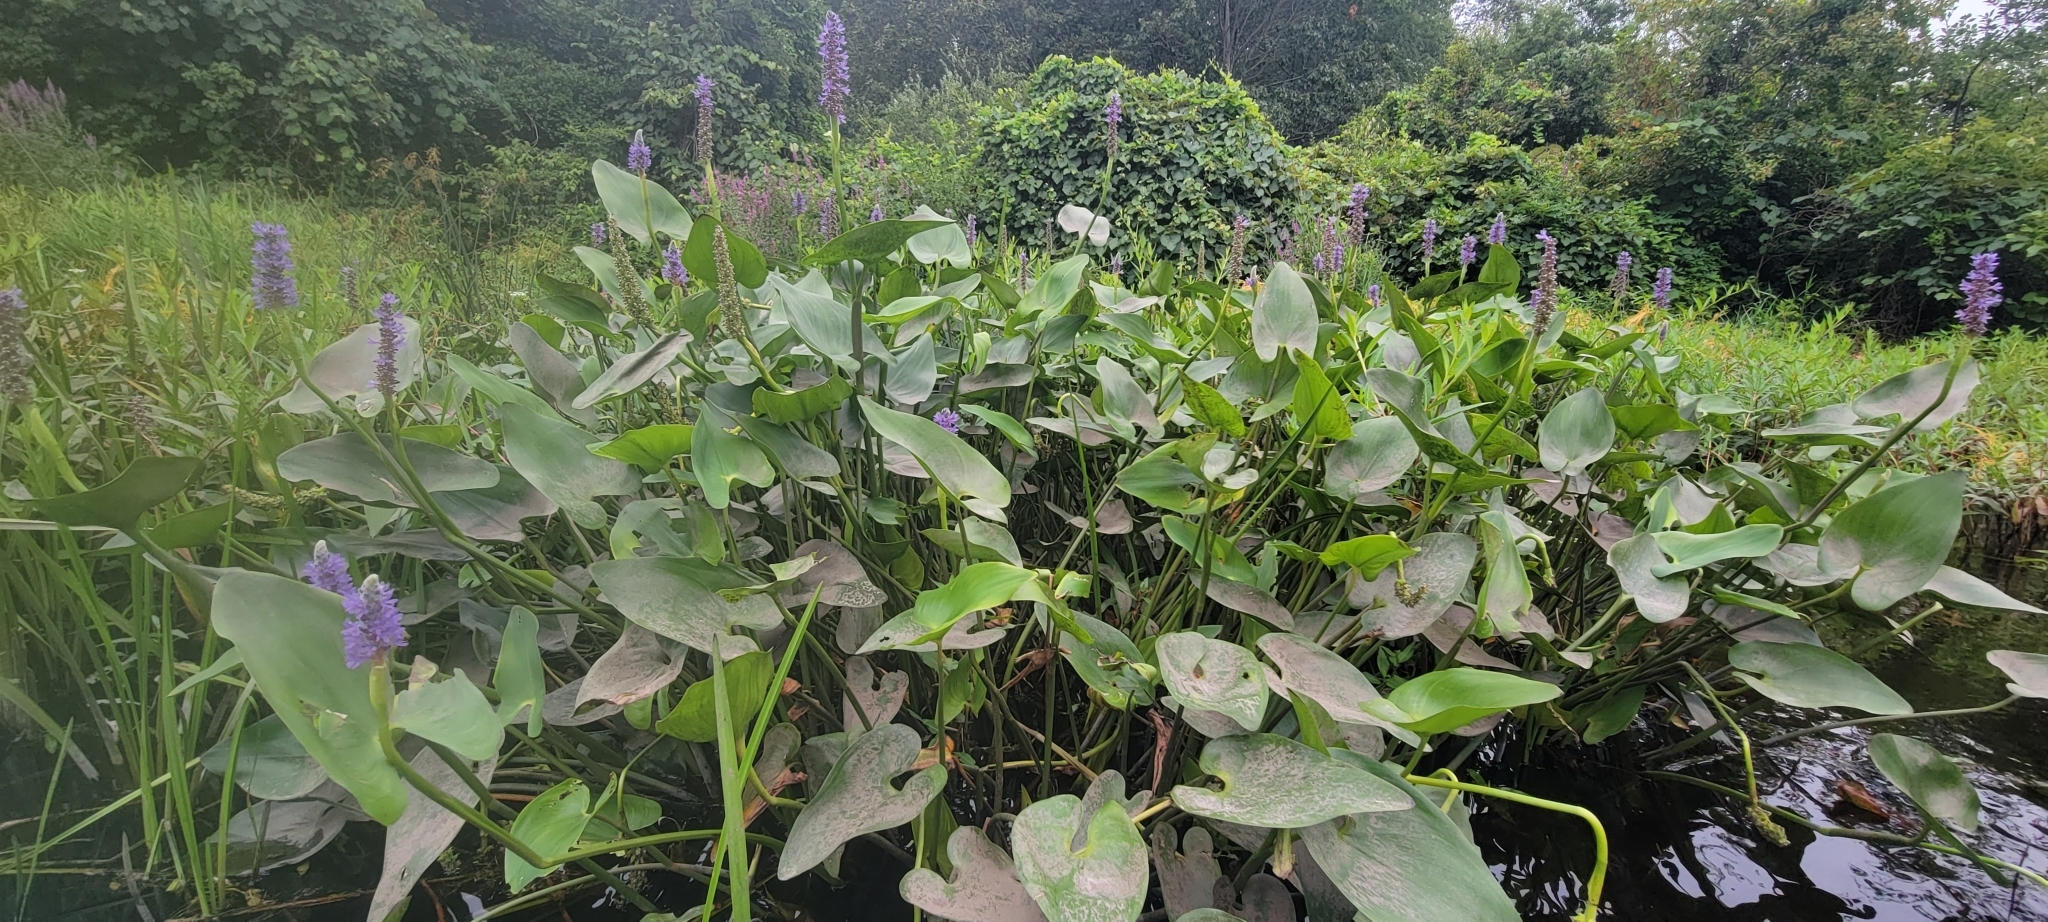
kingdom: Plantae
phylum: Tracheophyta
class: Liliopsida
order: Commelinales
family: Pontederiaceae
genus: Pontederia
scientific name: Pontederia cordata
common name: Pickerelweed
